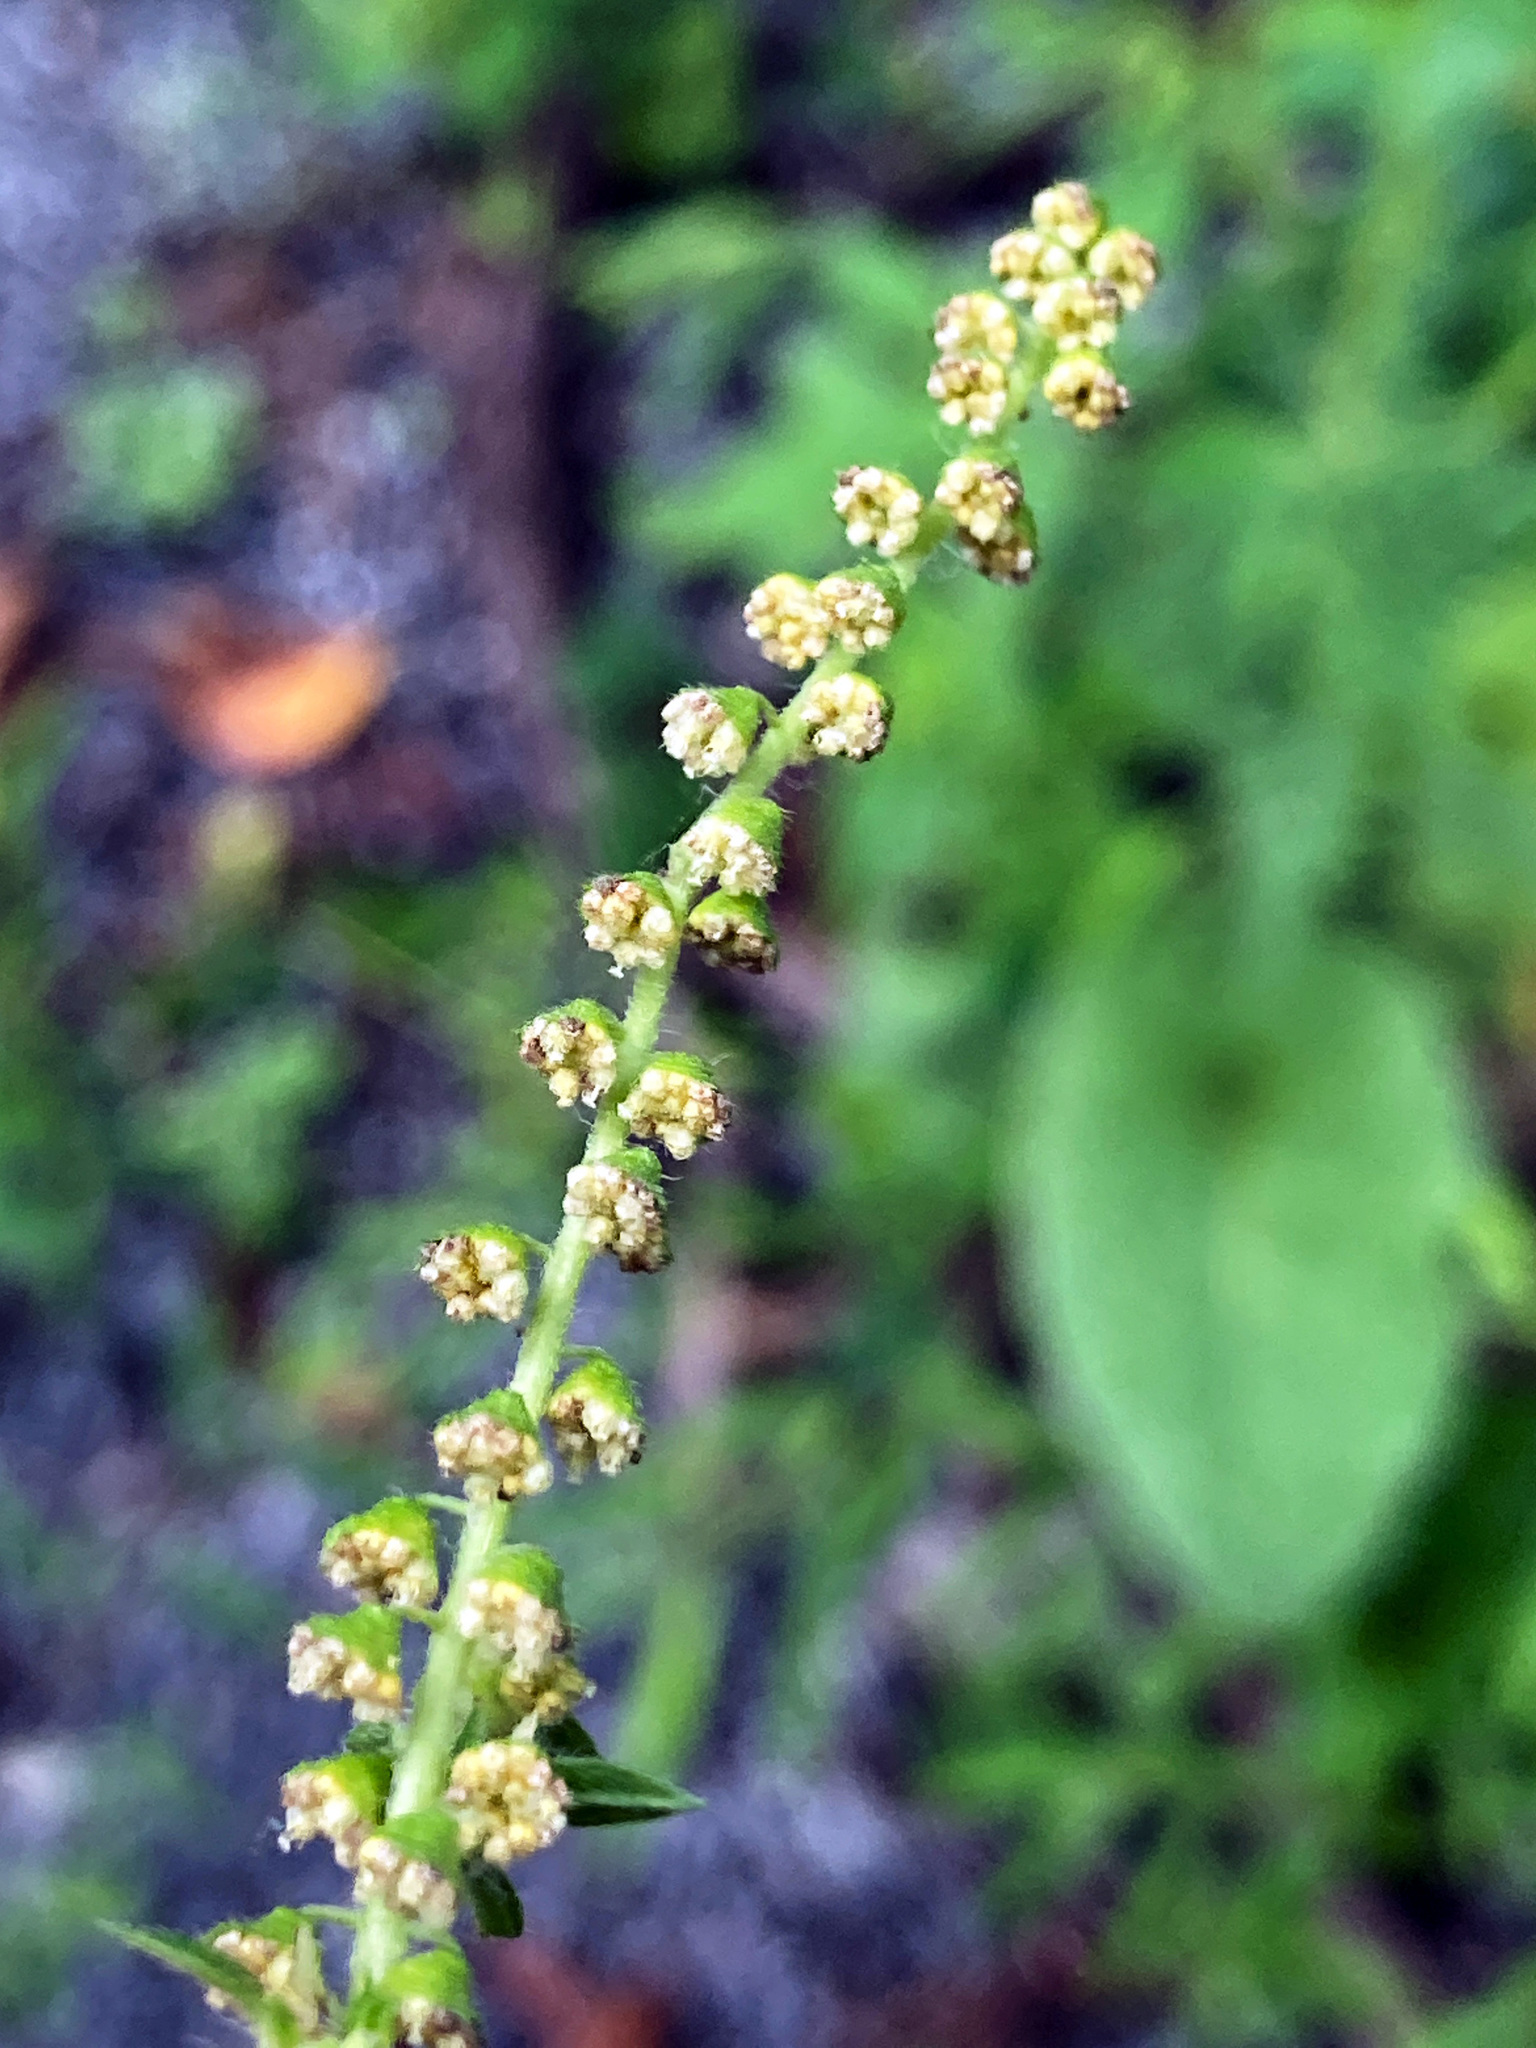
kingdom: Plantae
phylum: Tracheophyta
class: Magnoliopsida
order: Asterales
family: Asteraceae
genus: Ambrosia
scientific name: Ambrosia artemisiifolia
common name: Annual ragweed
